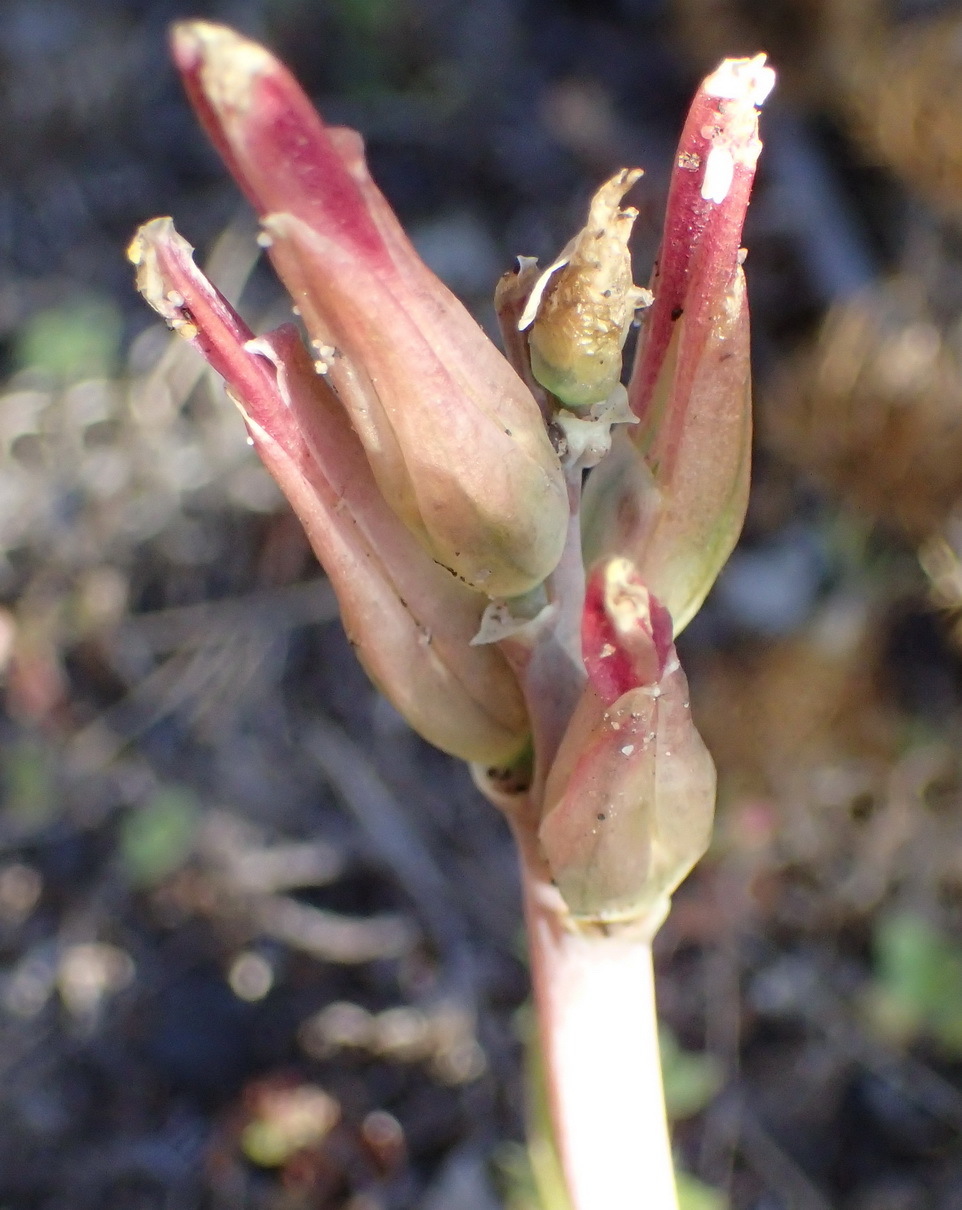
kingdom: Plantae
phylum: Tracheophyta
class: Liliopsida
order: Asparagales
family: Asparagaceae
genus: Lachenalia
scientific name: Lachenalia algoensis
